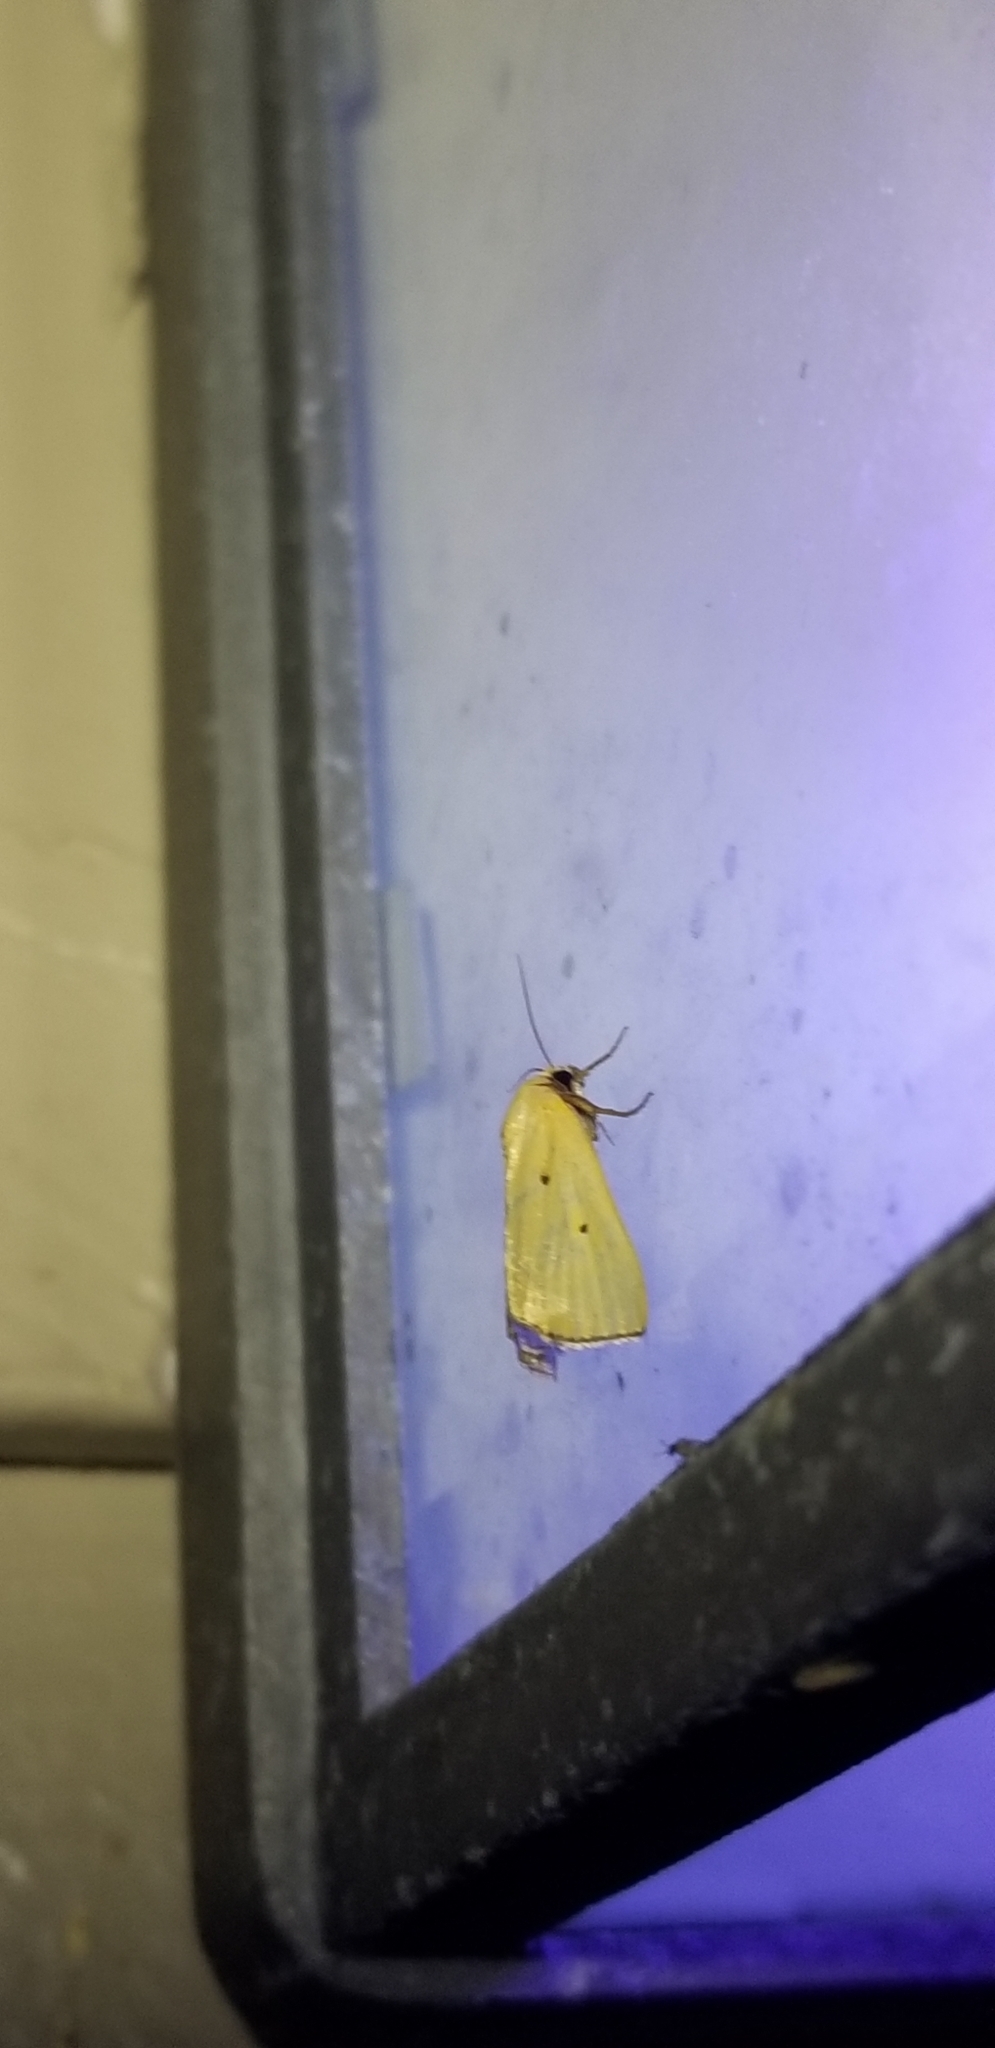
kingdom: Animalia
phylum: Arthropoda
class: Insecta
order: Lepidoptera
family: Noctuidae
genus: Marimatha
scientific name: Marimatha nigrofimbria
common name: Black-bordered lemon moth
